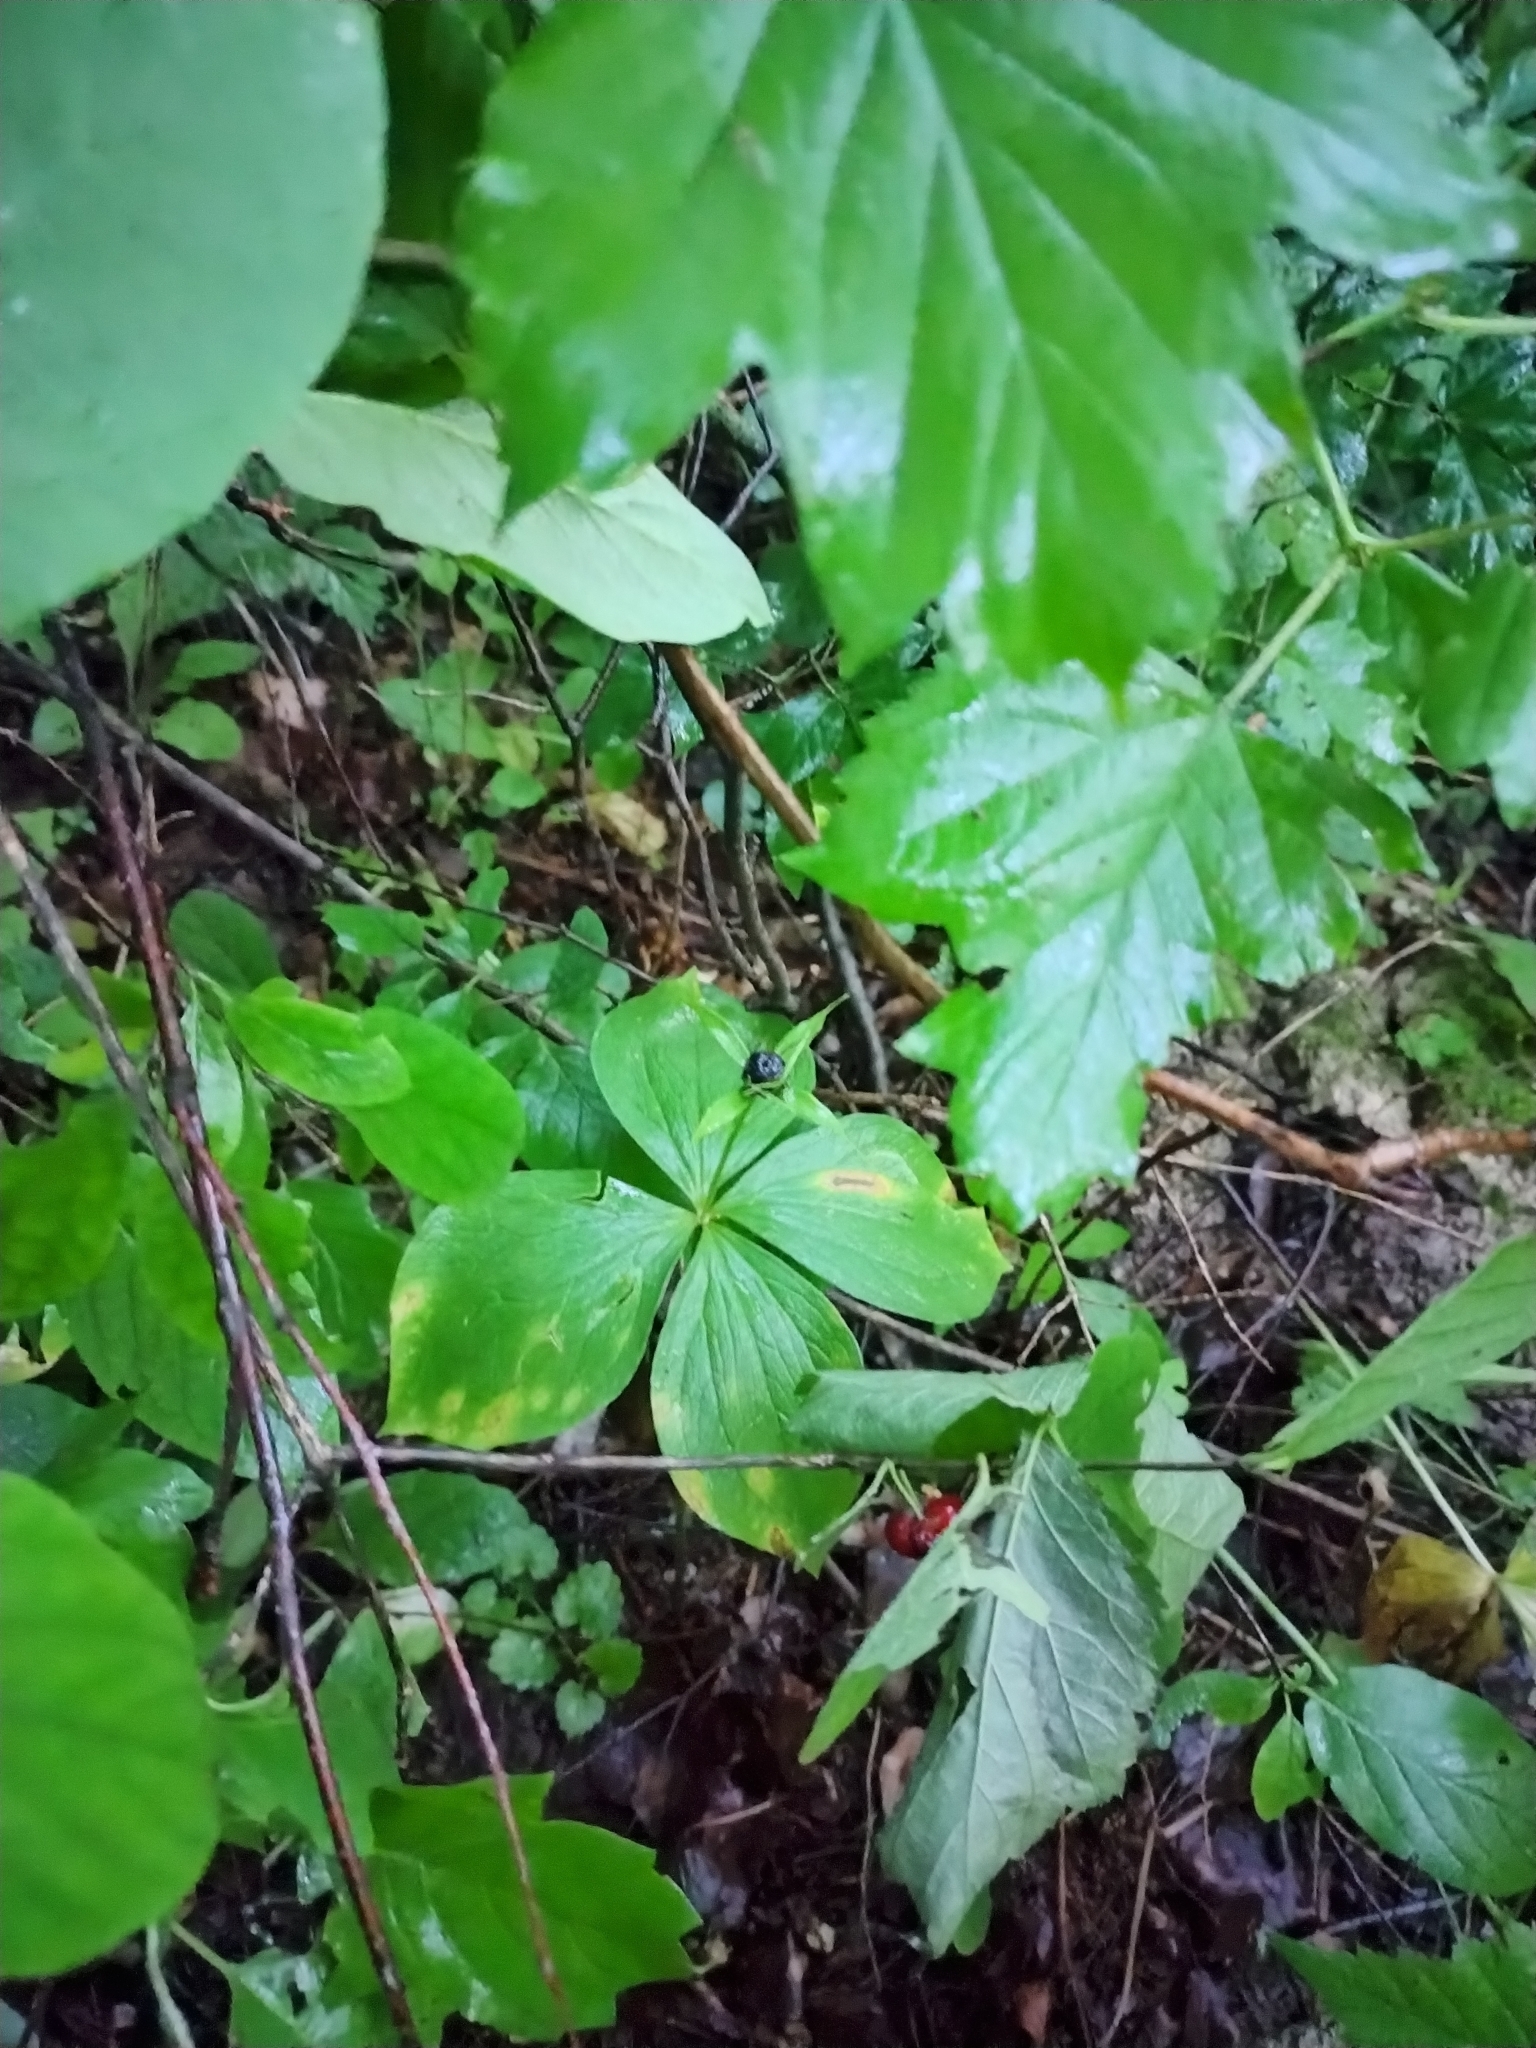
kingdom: Plantae
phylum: Tracheophyta
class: Liliopsida
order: Liliales
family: Melanthiaceae
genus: Paris
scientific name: Paris quadrifolia
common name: Herb-paris
